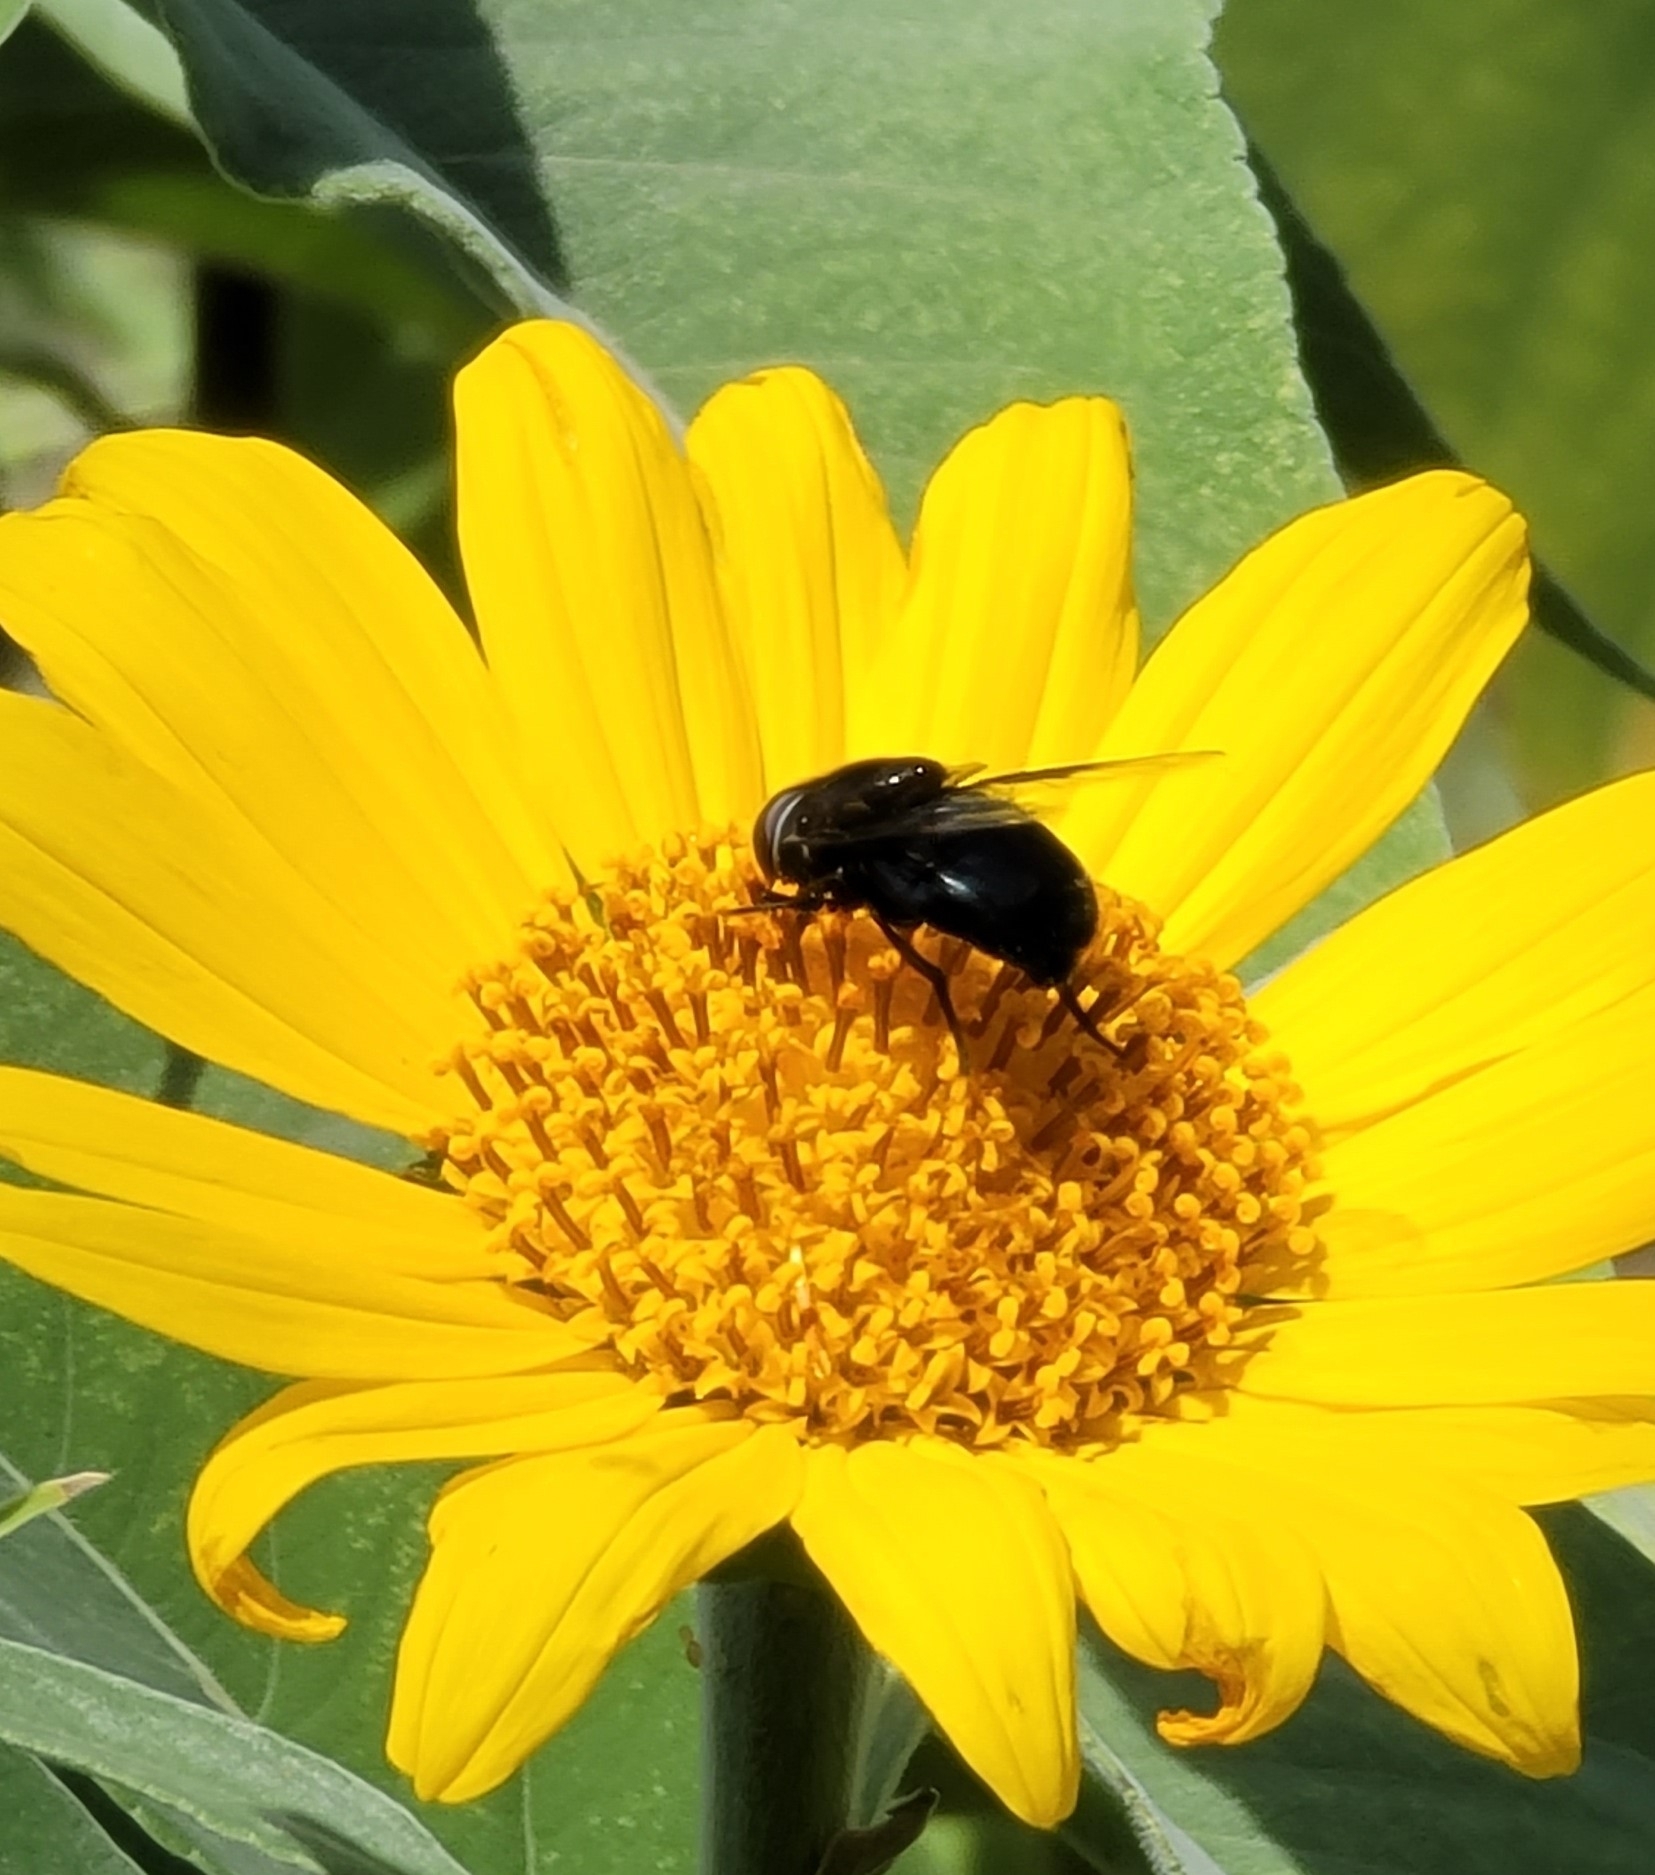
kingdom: Animalia
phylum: Arthropoda
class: Insecta
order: Diptera
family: Syrphidae
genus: Copestylum
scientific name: Copestylum
